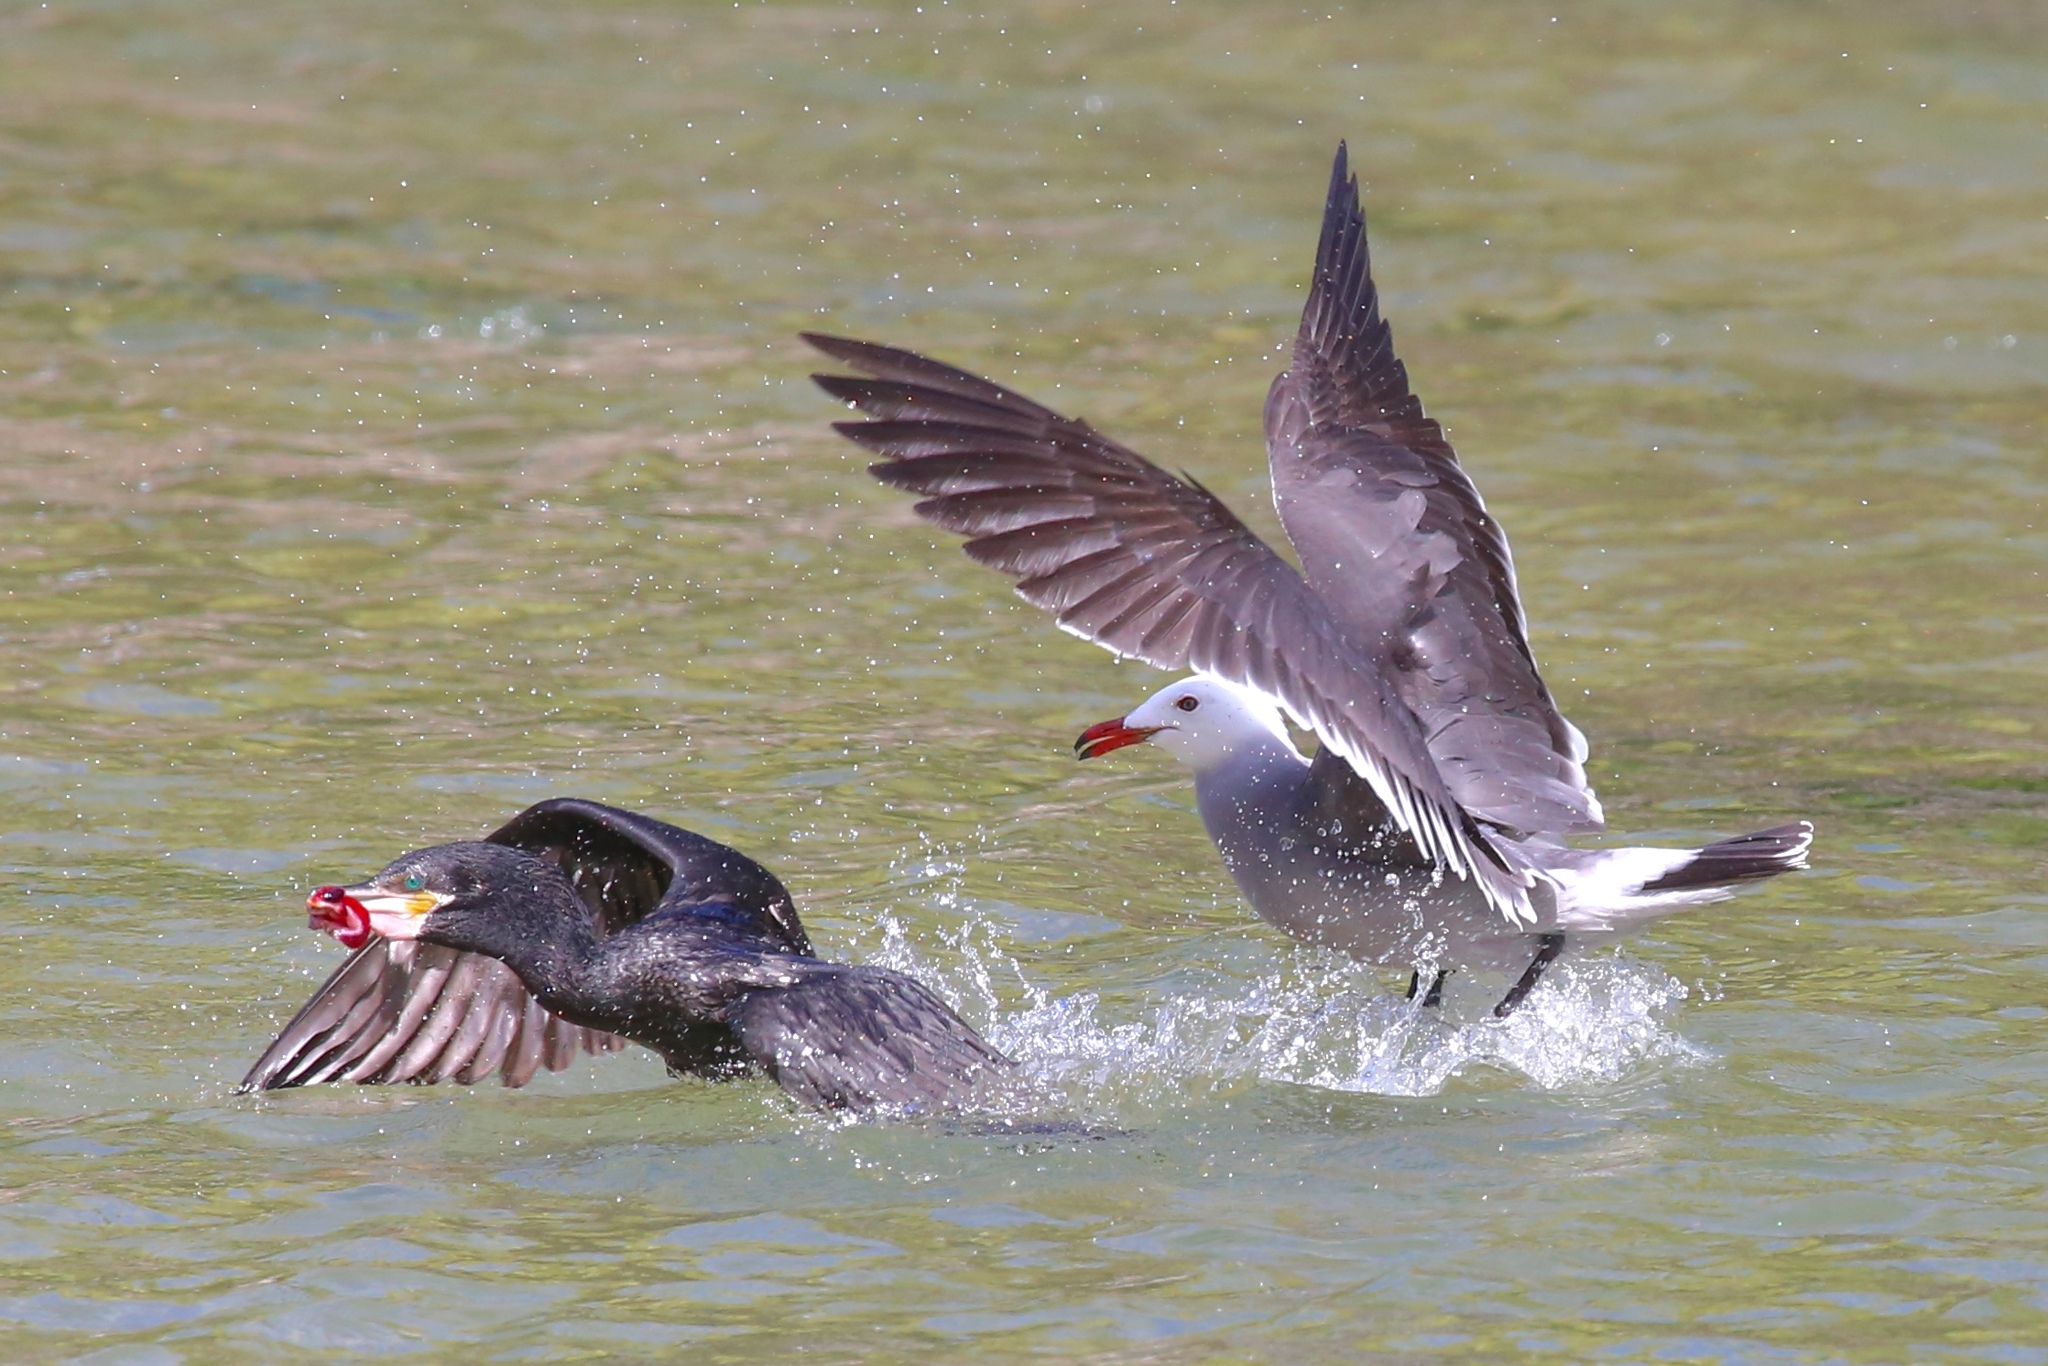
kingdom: Animalia
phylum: Chordata
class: Aves
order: Suliformes
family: Phalacrocoracidae
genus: Phalacrocorax
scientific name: Phalacrocorax brasilianus
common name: Neotropic cormorant
